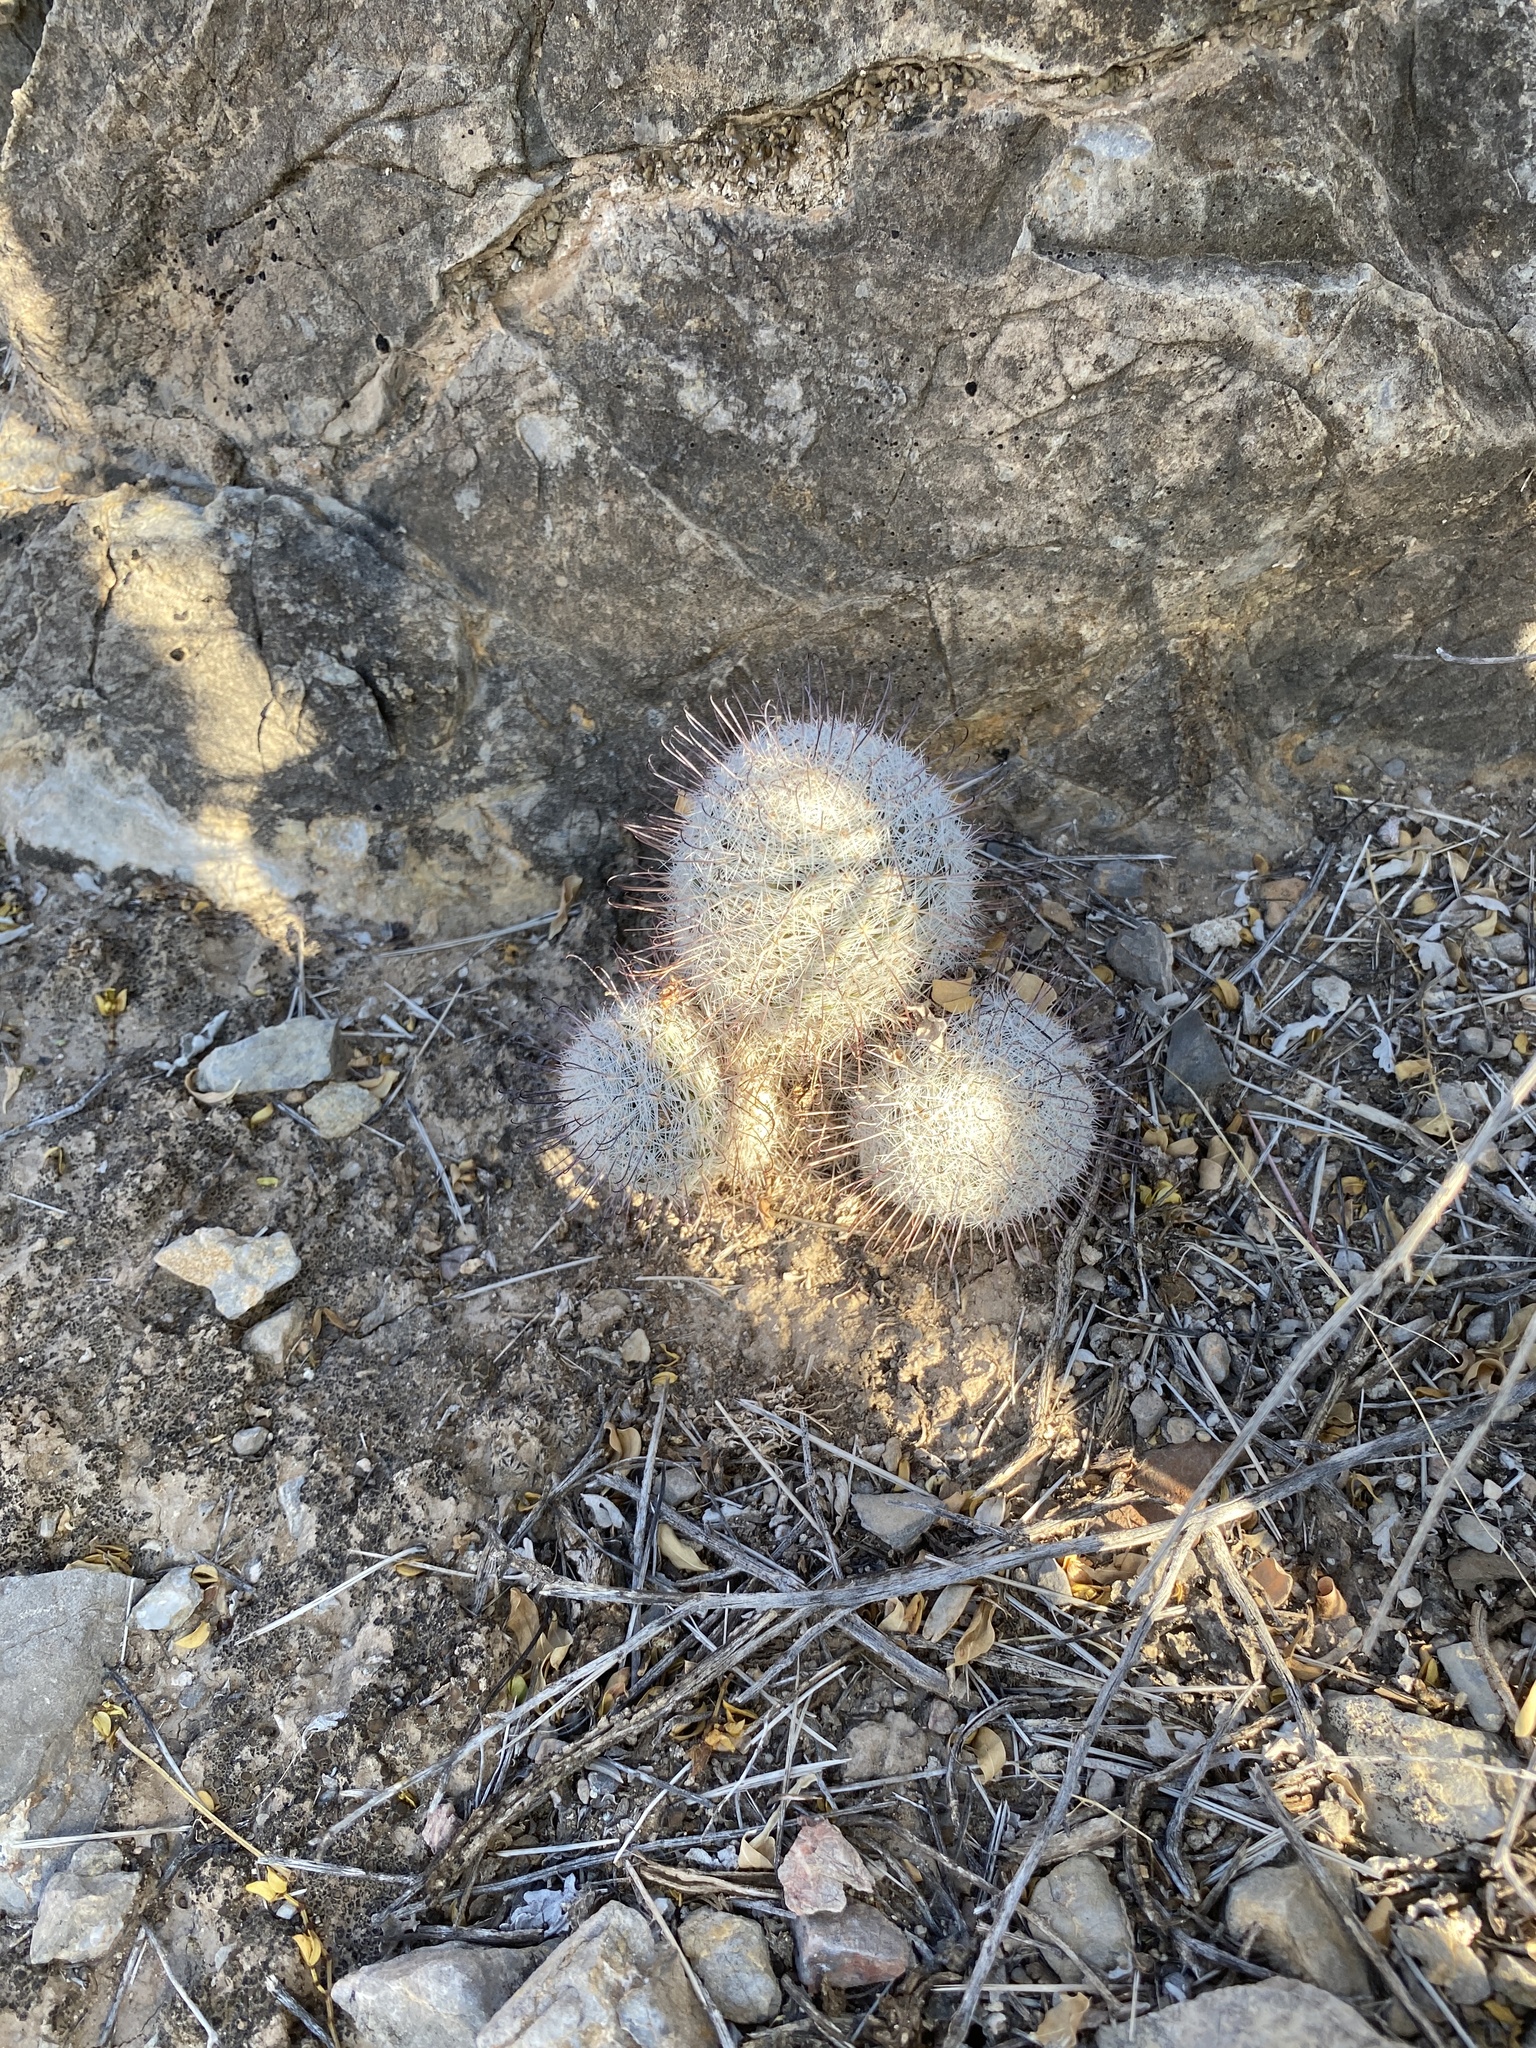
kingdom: Plantae
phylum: Tracheophyta
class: Magnoliopsida
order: Caryophyllales
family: Cactaceae
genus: Cochemiea
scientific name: Cochemiea grahamii
